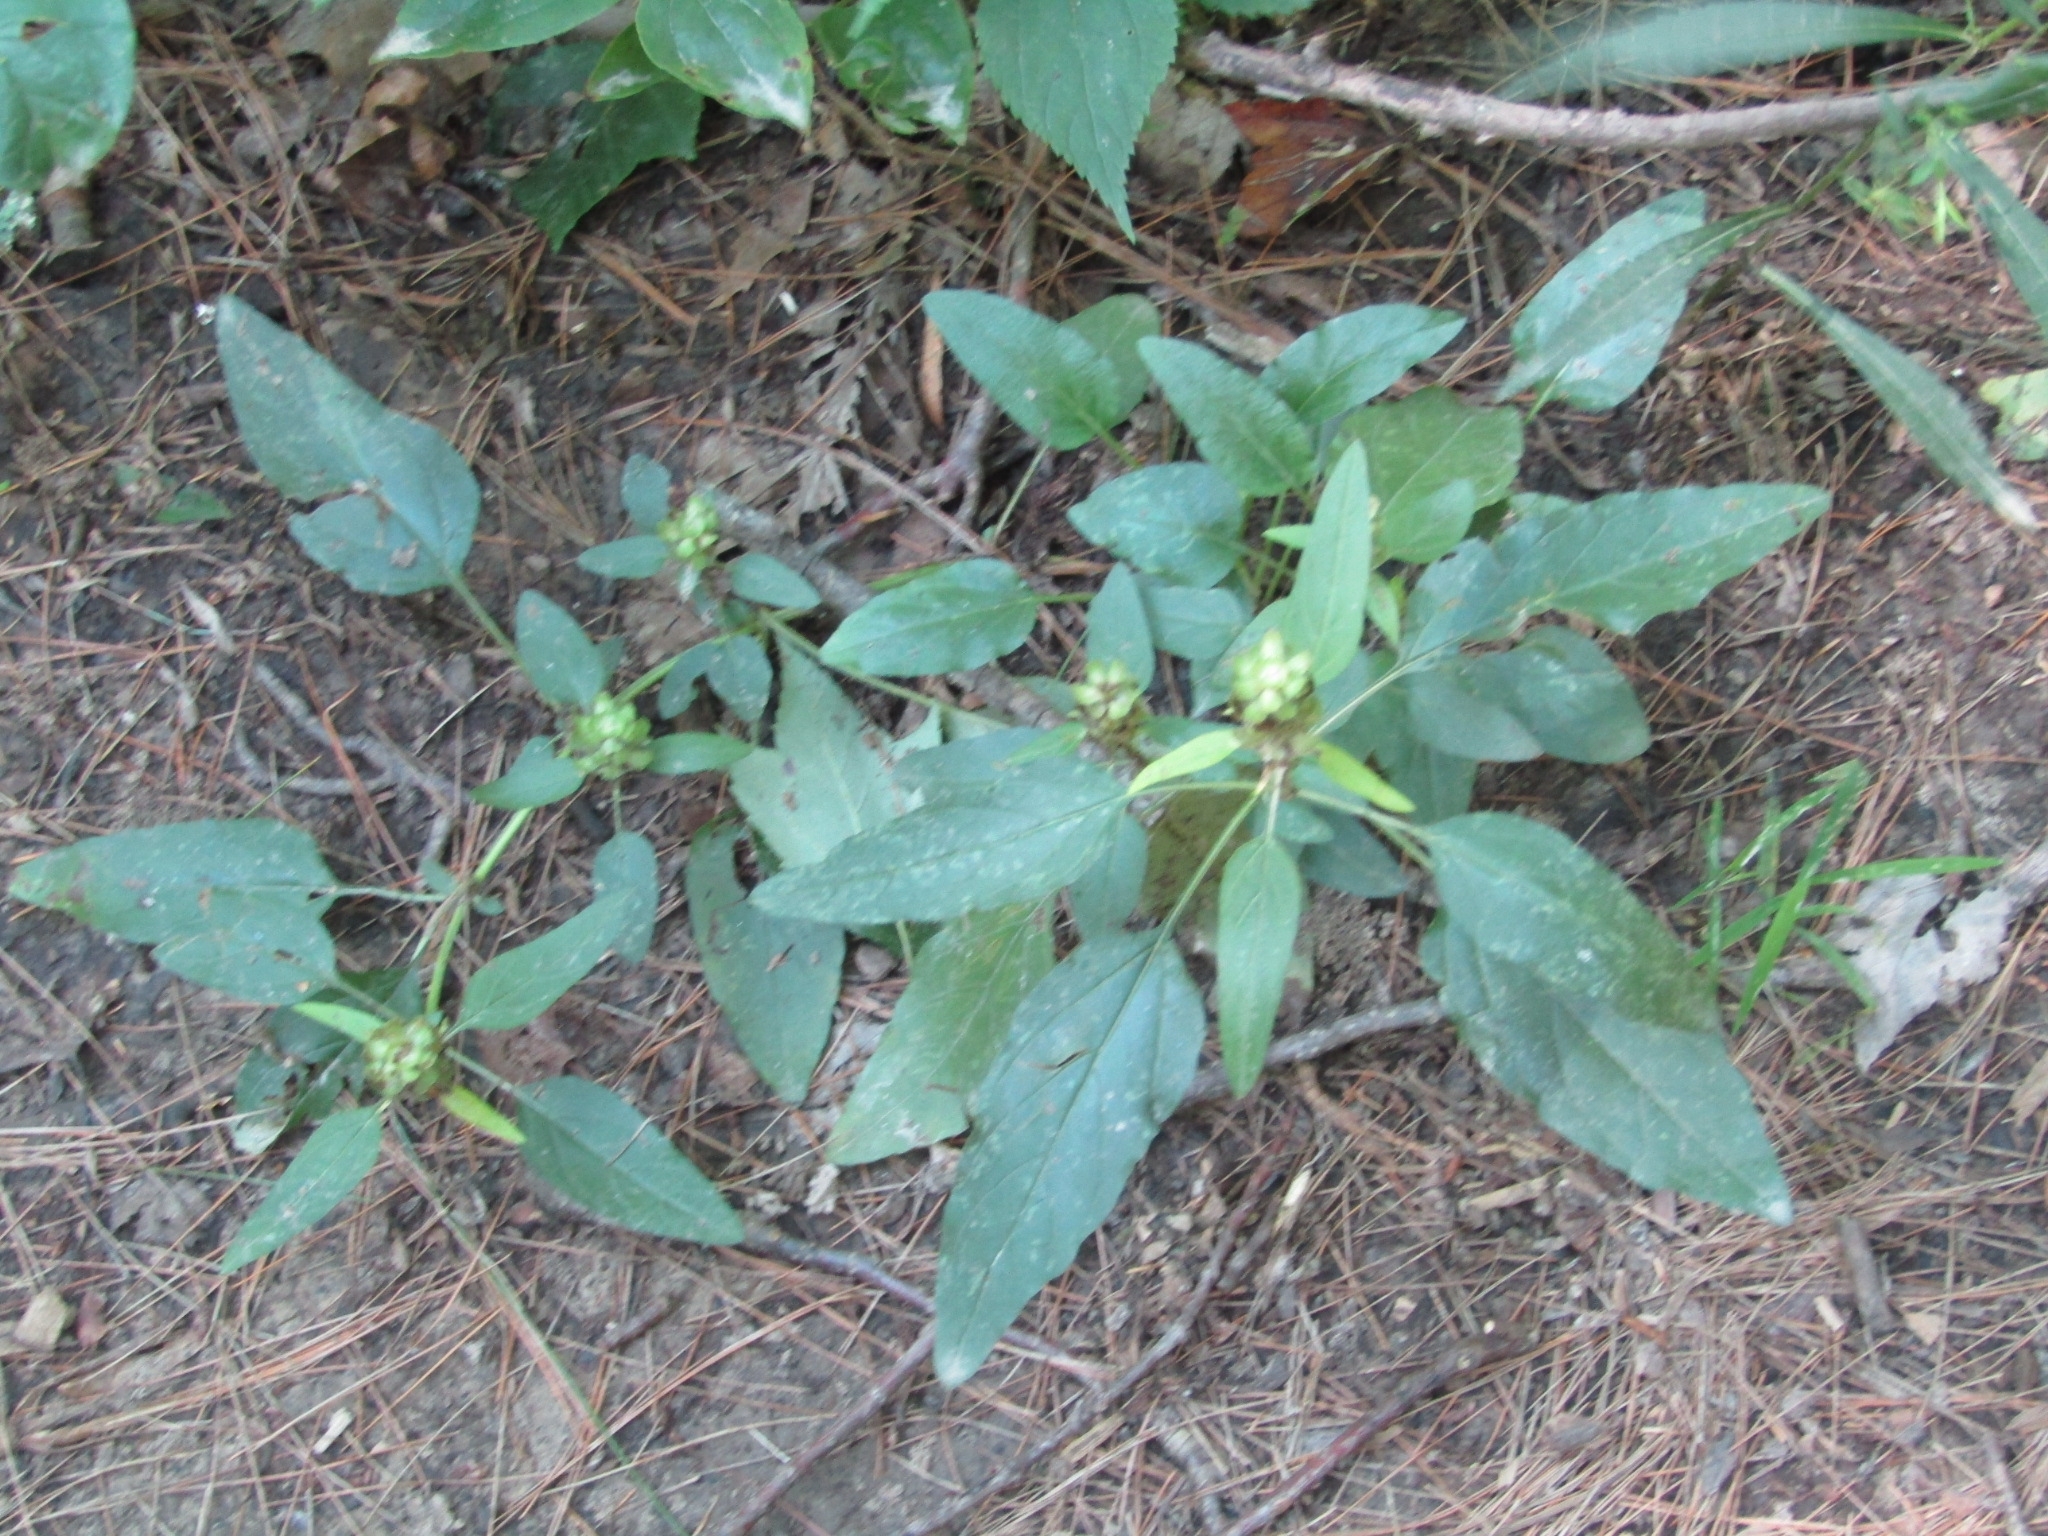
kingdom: Plantae
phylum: Tracheophyta
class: Magnoliopsida
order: Lamiales
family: Lamiaceae
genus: Prunella
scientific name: Prunella vulgaris
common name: Heal-all
